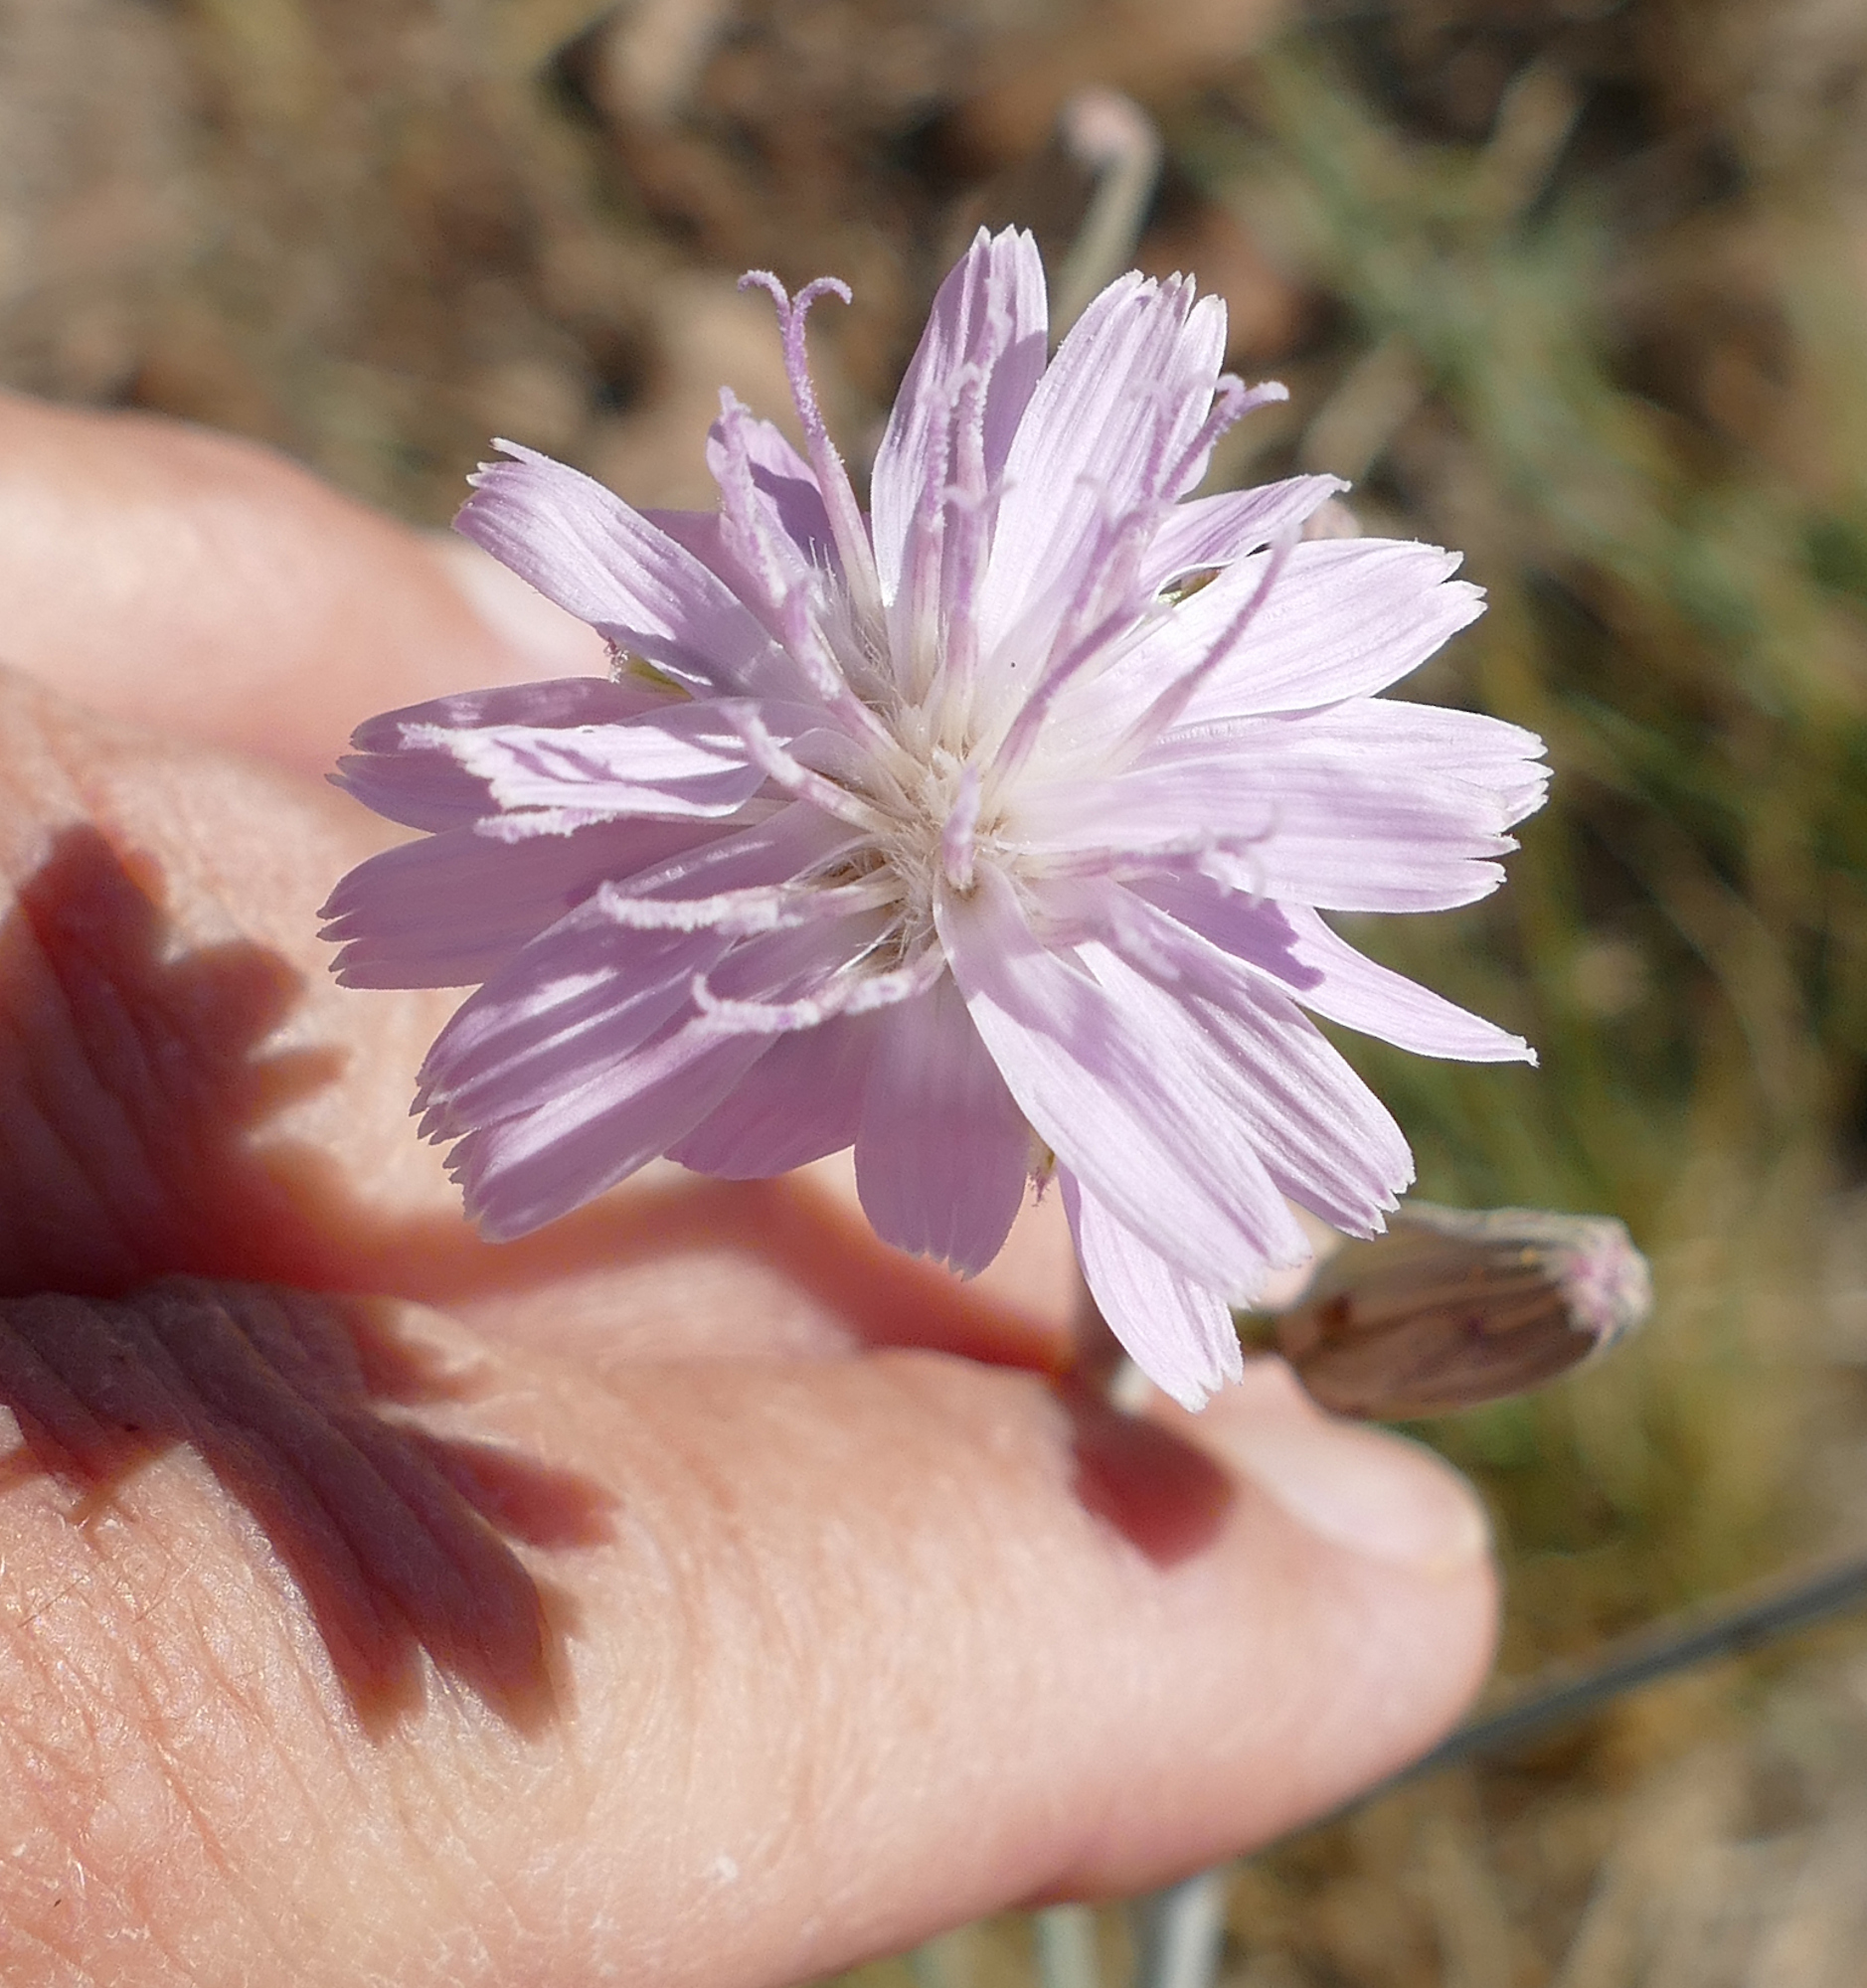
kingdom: Plantae
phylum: Tracheophyta
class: Magnoliopsida
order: Asterales
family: Asteraceae
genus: Stephanomeria
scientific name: Stephanomeria thurberi
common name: Thurber's wire-lettuce
